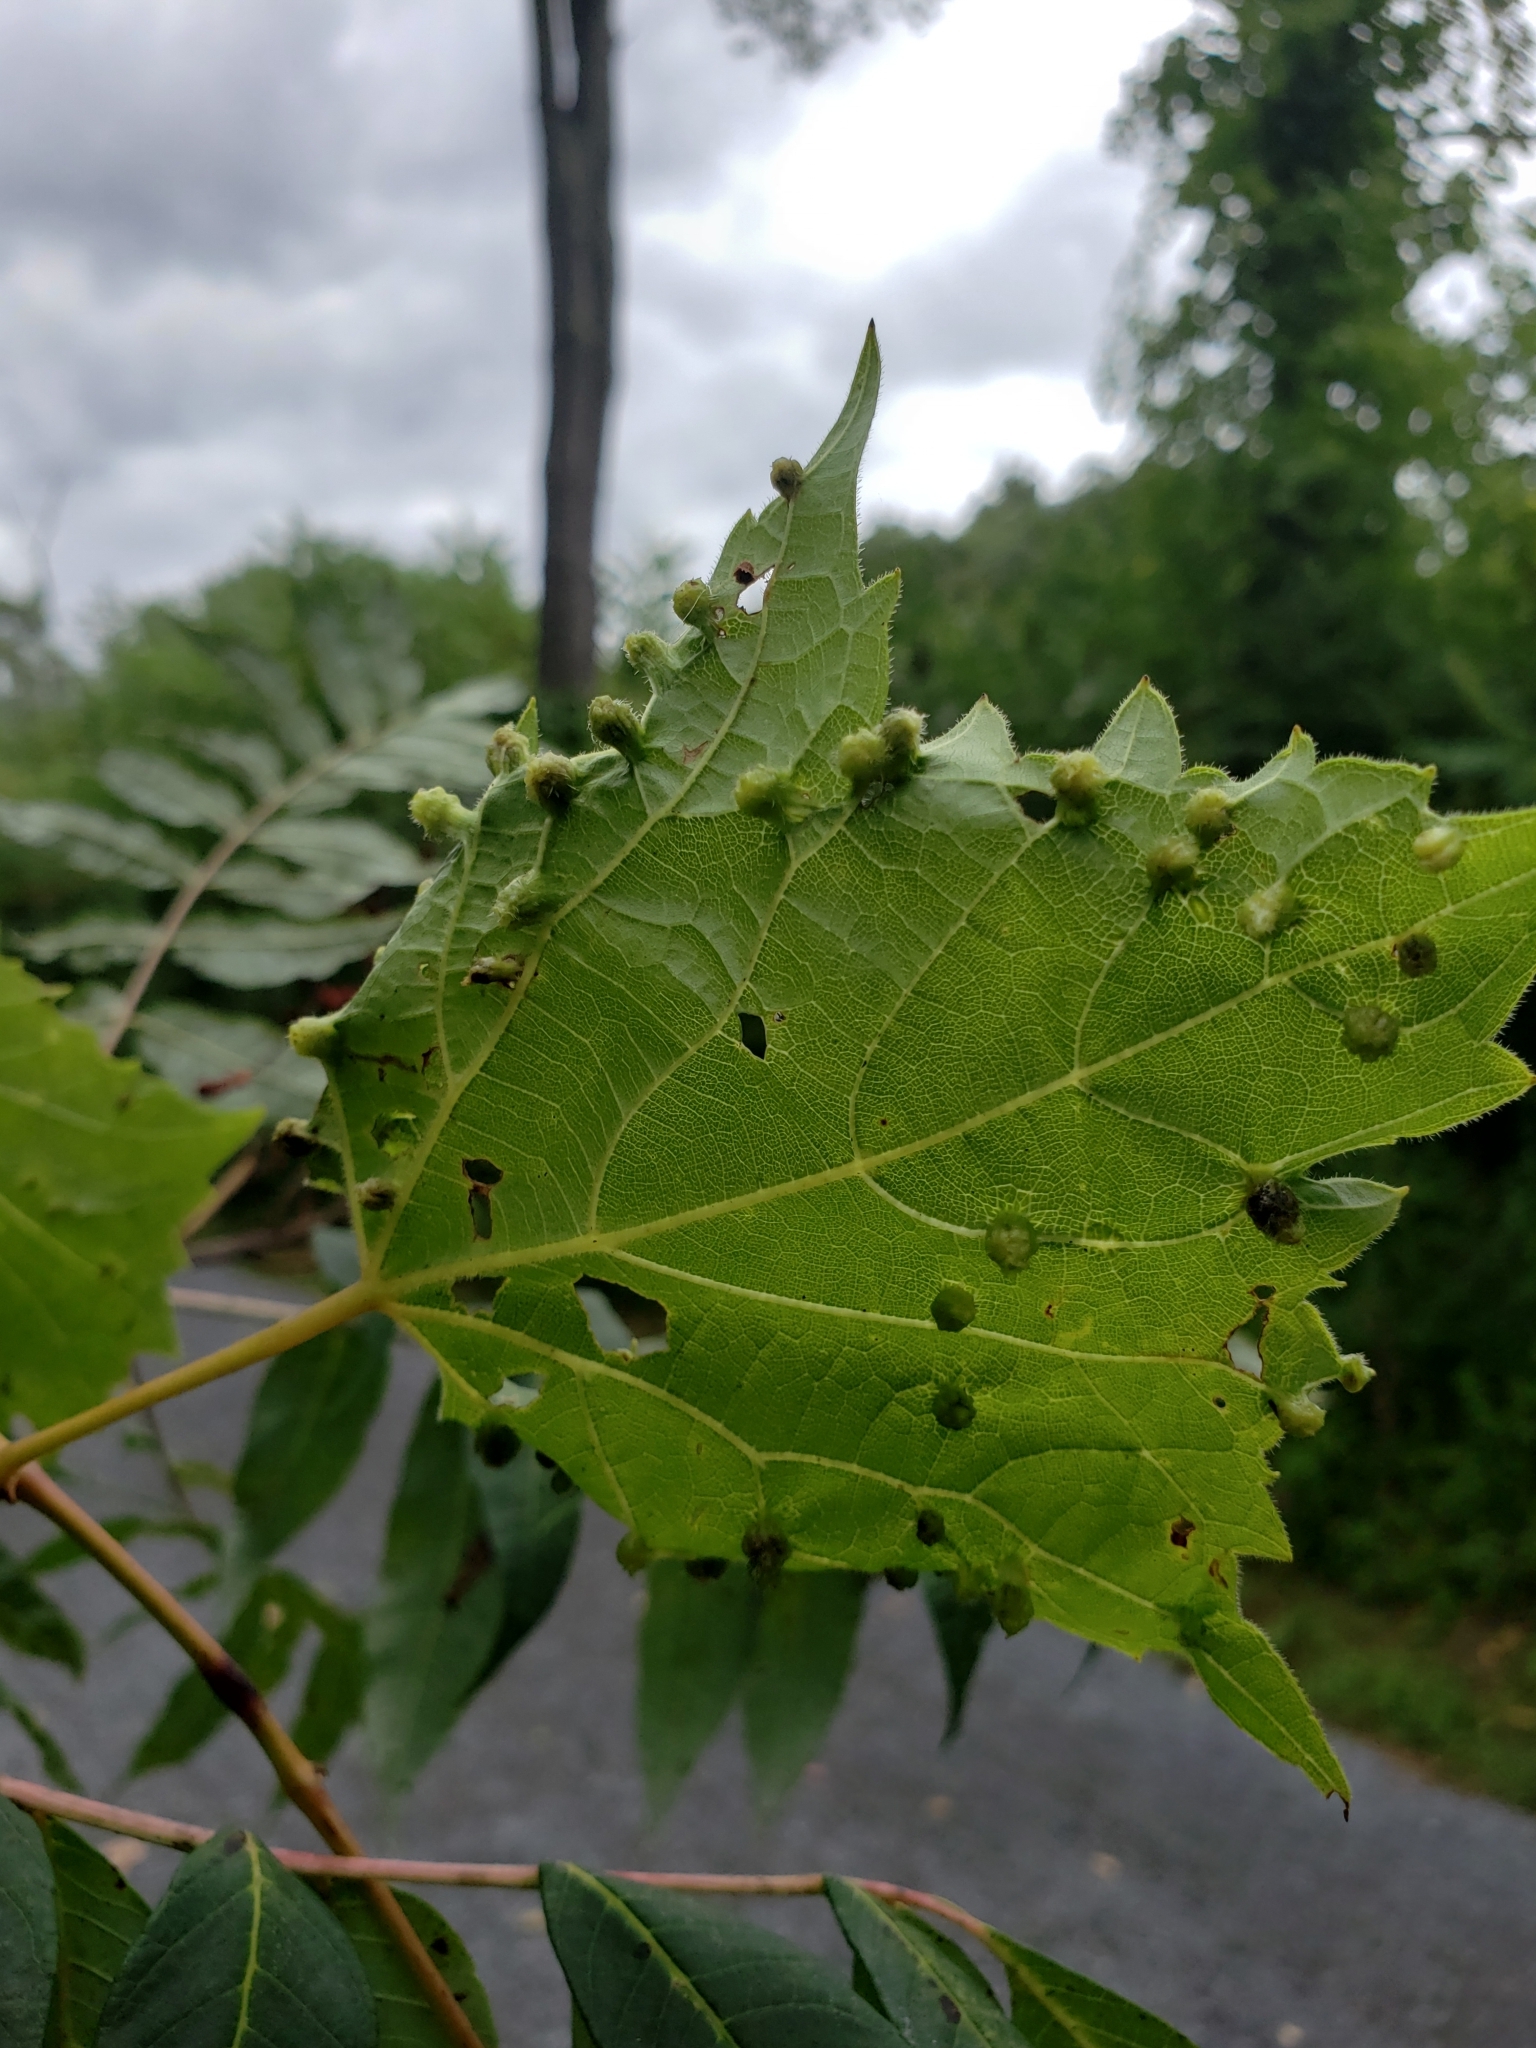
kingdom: Animalia
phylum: Arthropoda
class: Insecta
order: Hemiptera
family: Phylloxeridae
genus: Daktulosphaira
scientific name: Daktulosphaira vitifoliae
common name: Grape phylloxera
